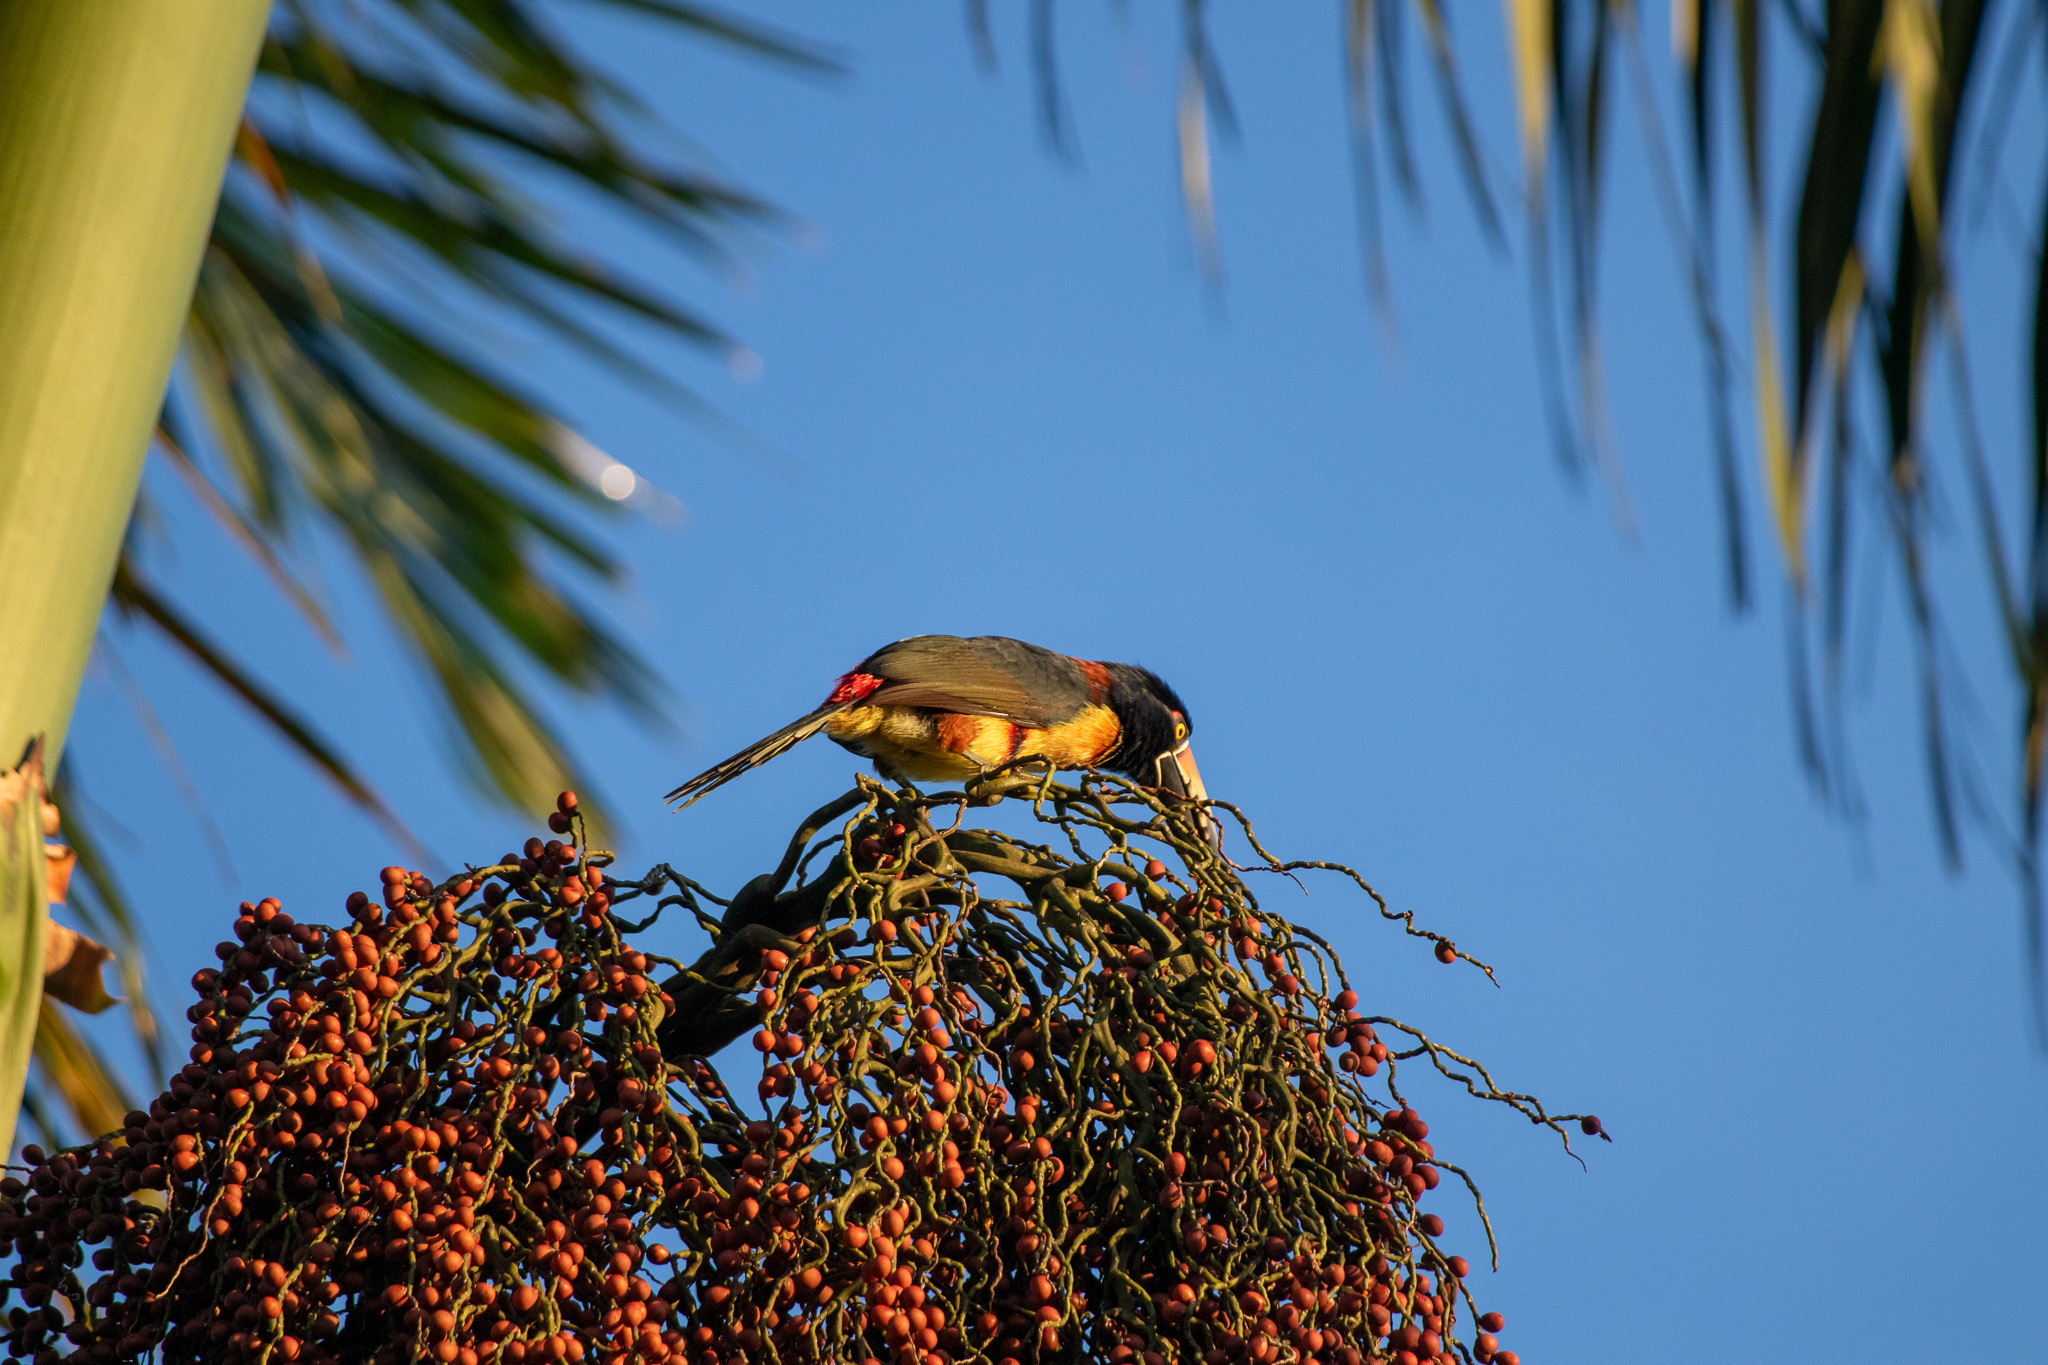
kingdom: Animalia
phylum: Chordata
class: Aves
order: Piciformes
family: Ramphastidae
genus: Pteroglossus
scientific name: Pteroglossus torquatus
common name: Collared aracari
